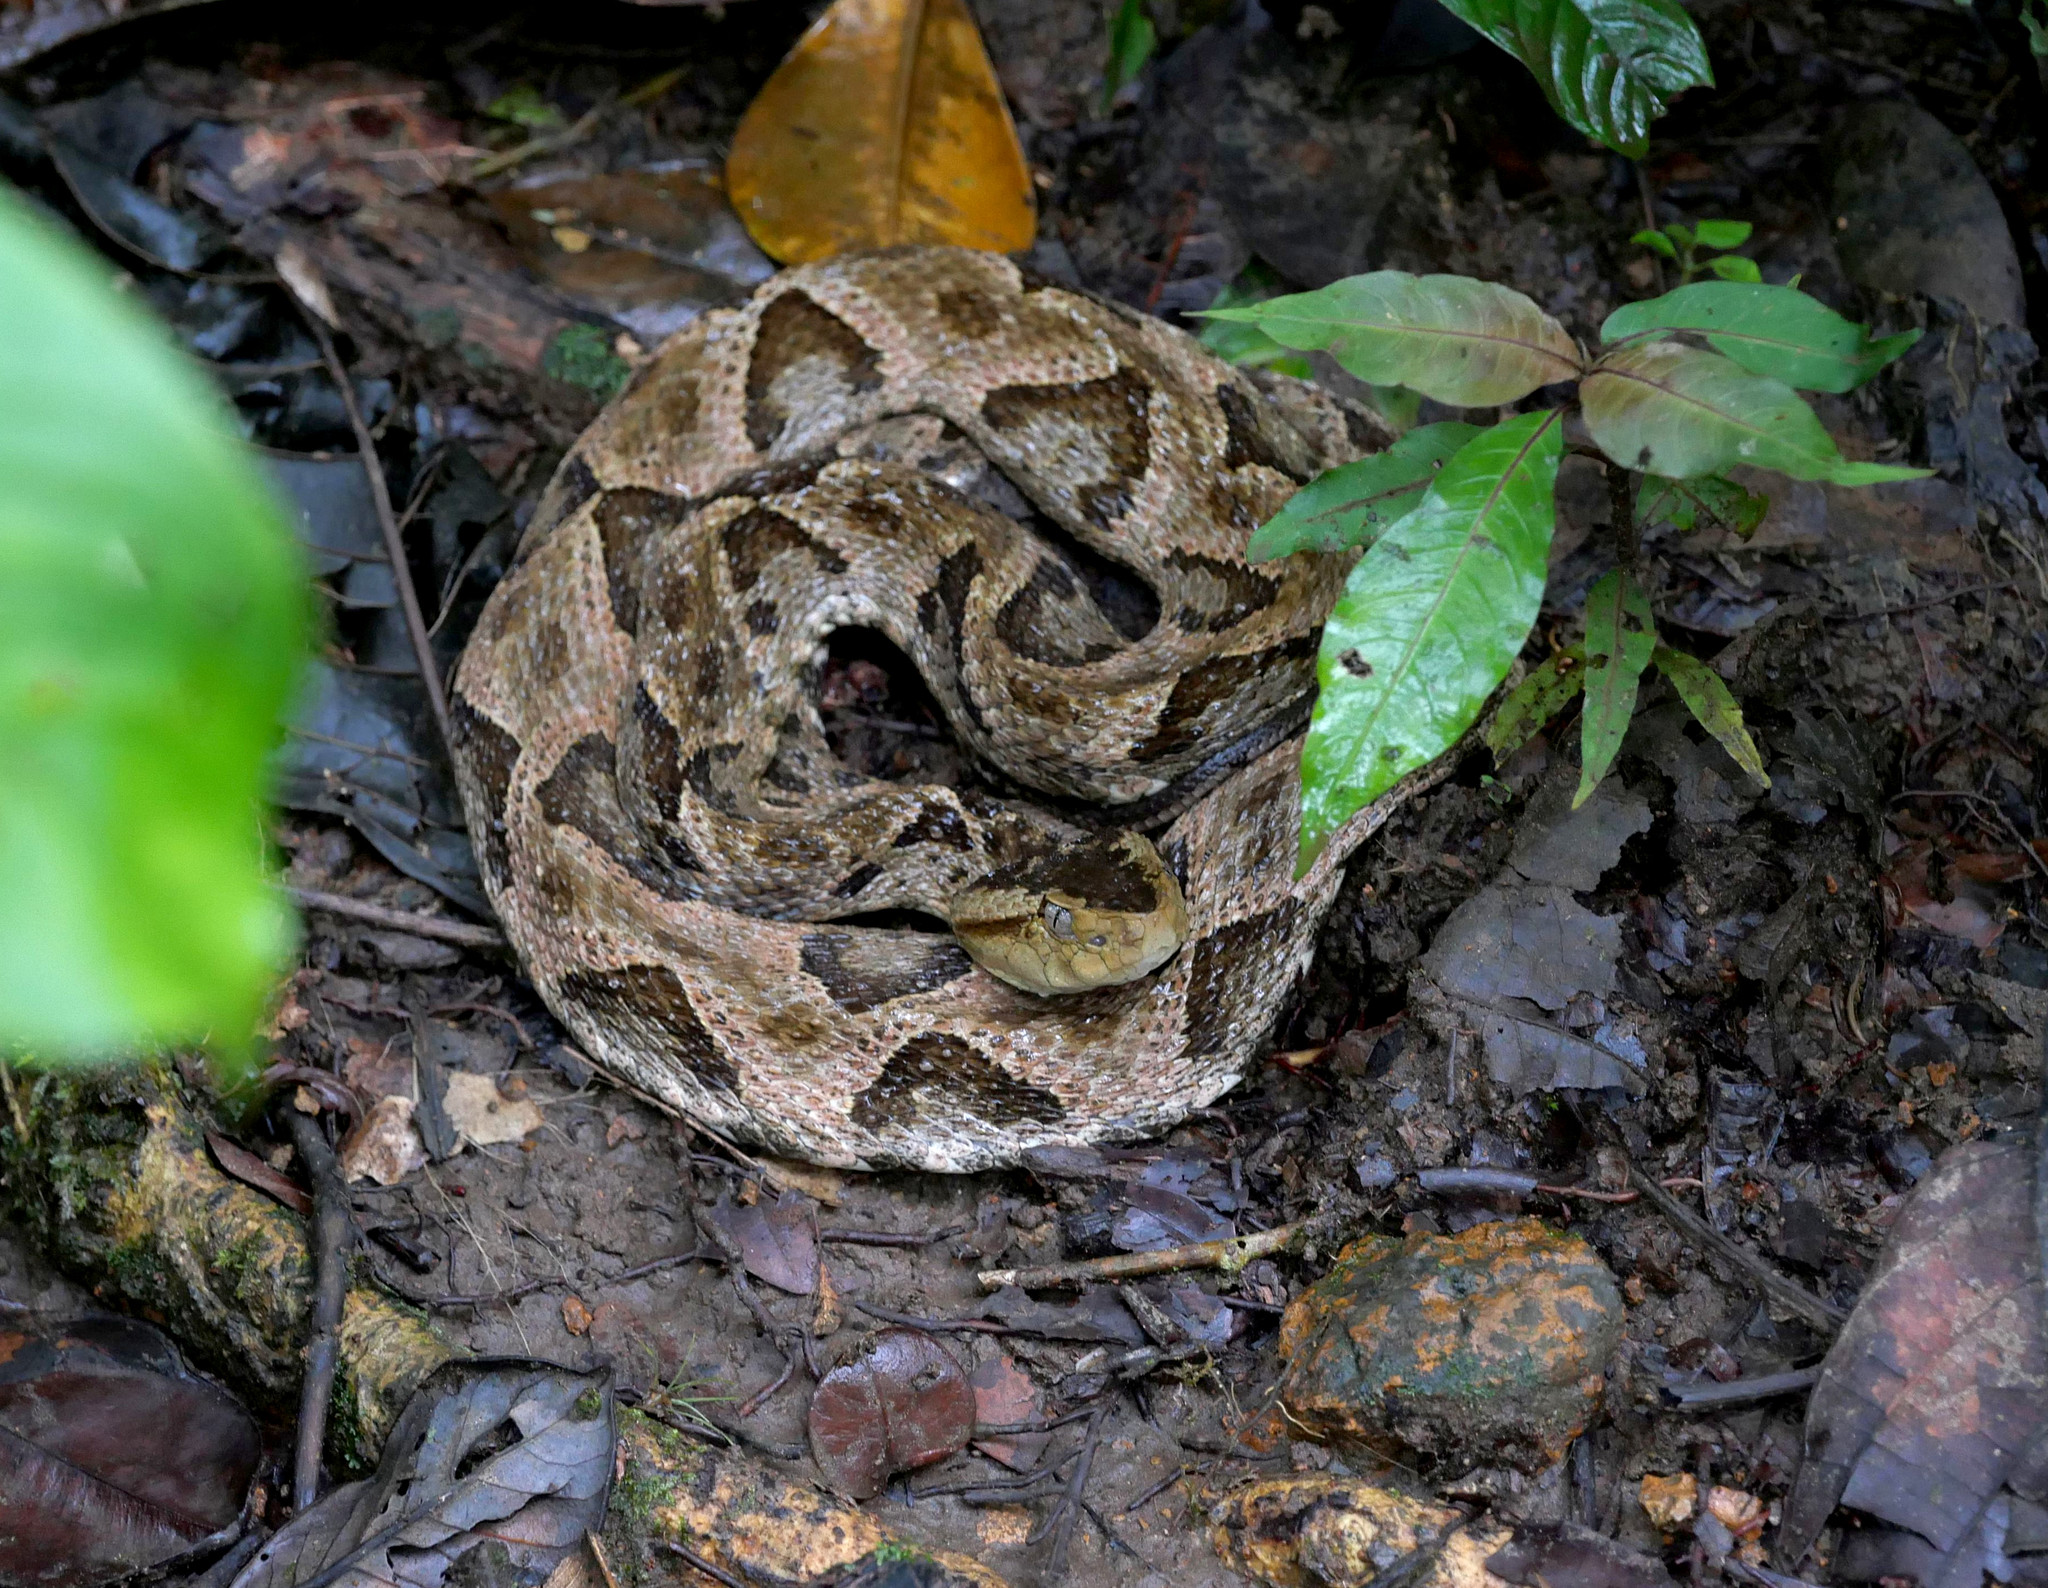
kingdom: Animalia
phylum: Chordata
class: Squamata
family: Viperidae
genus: Bothrops
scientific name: Bothrops asper
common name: Terciopelo
